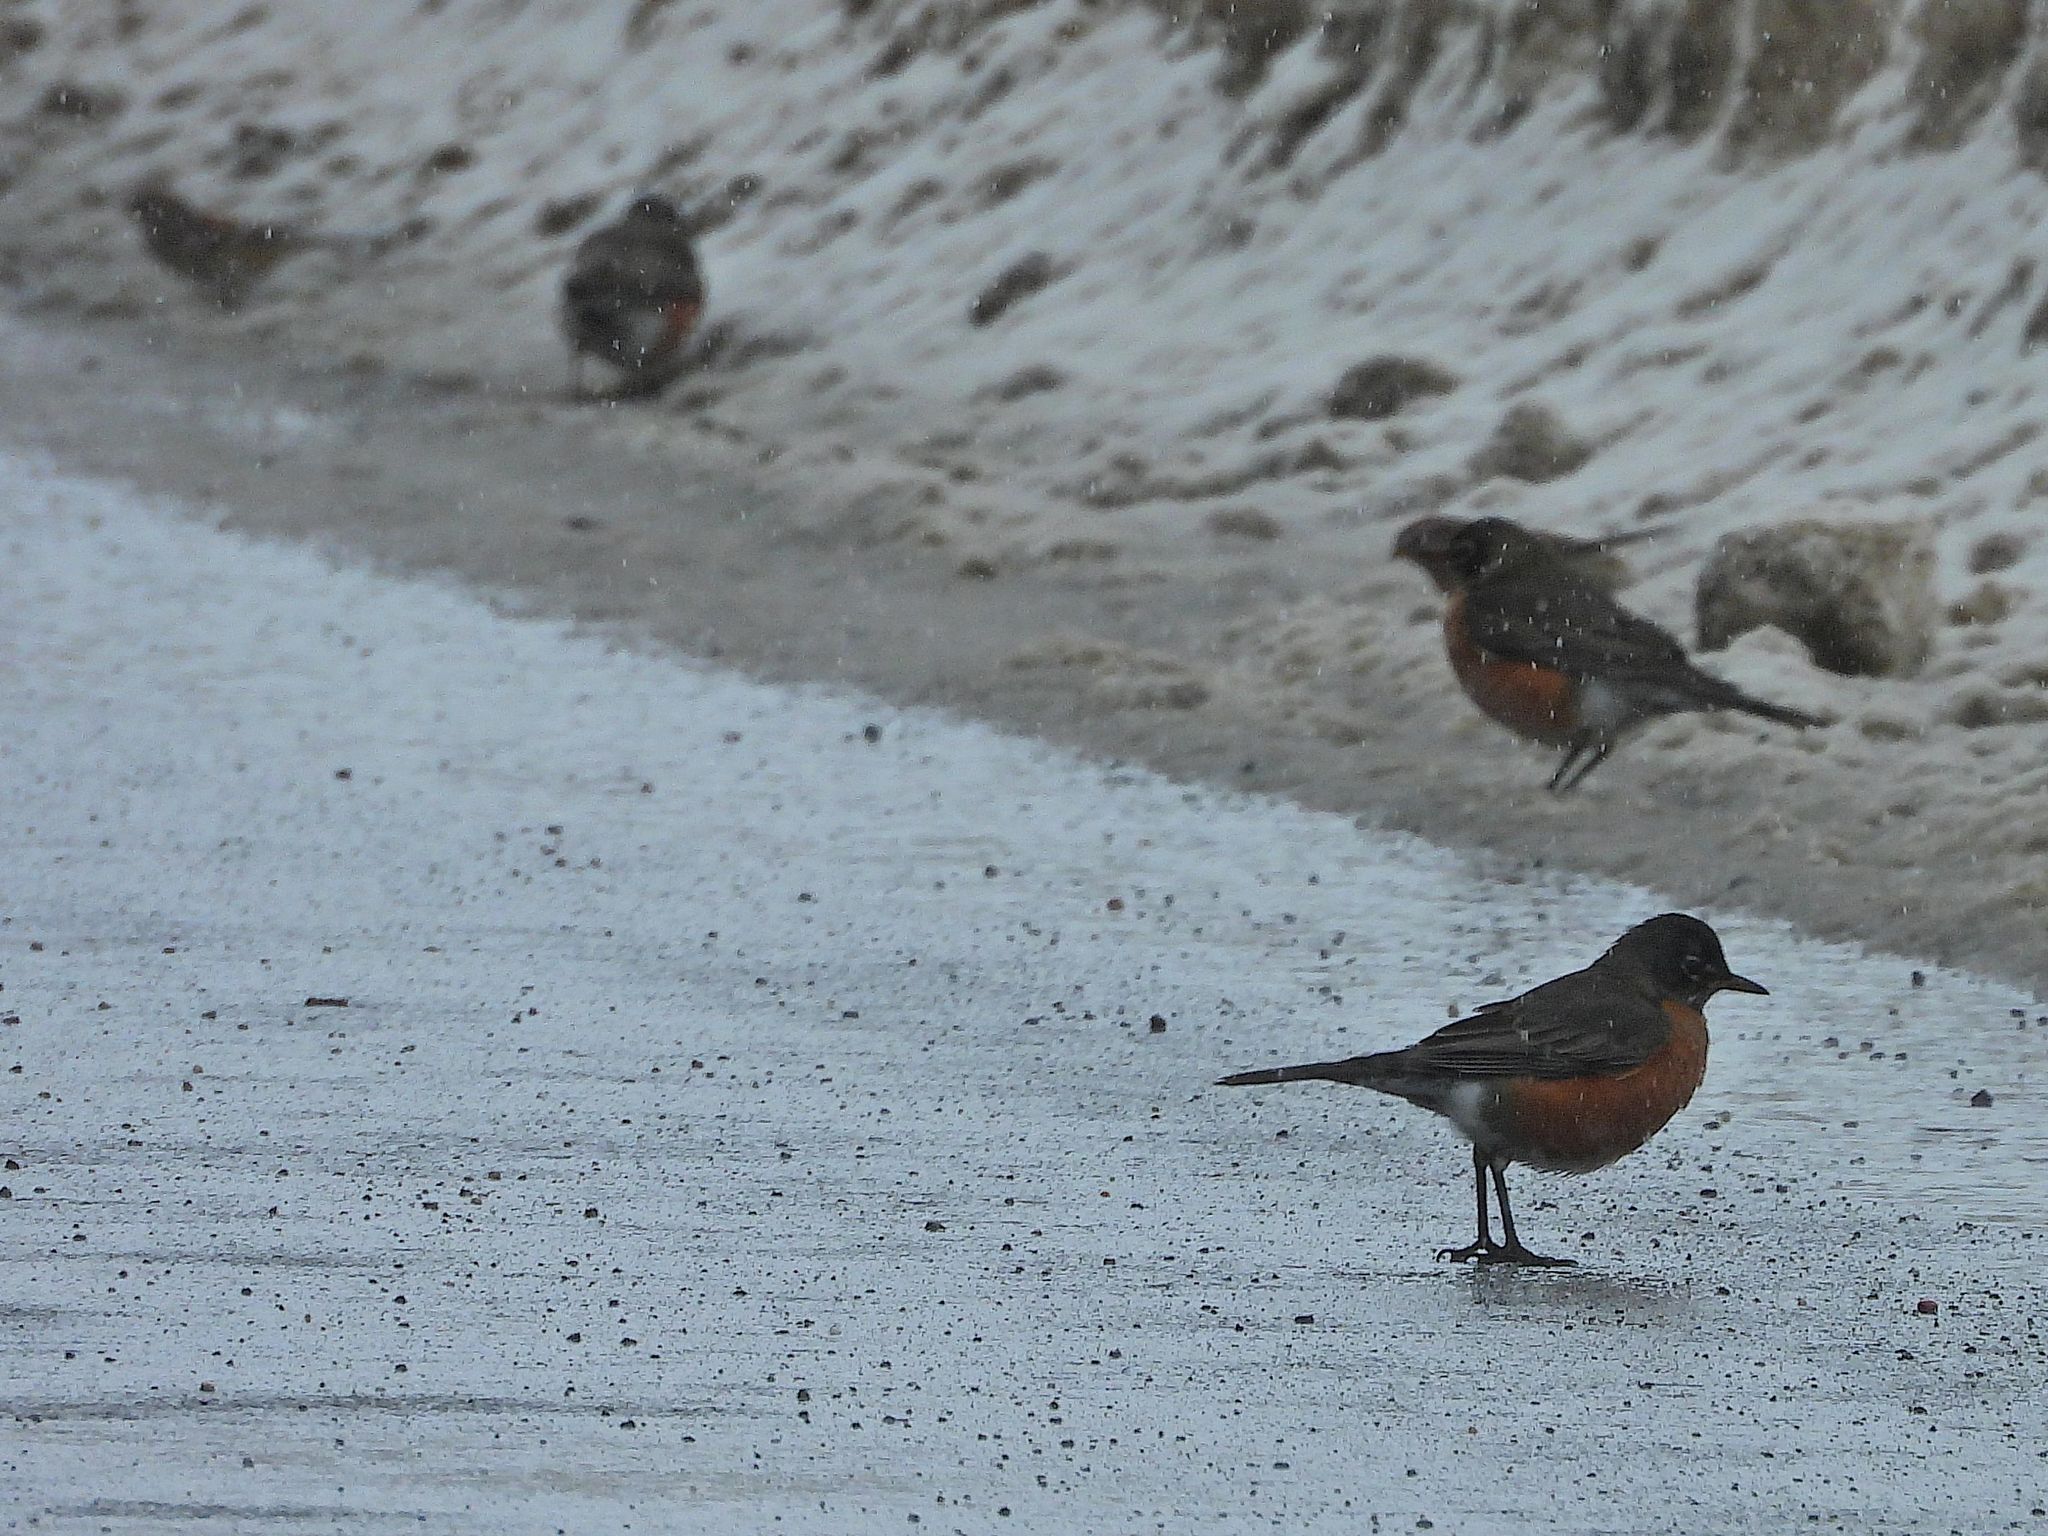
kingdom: Animalia
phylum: Chordata
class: Aves
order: Passeriformes
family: Turdidae
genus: Turdus
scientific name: Turdus migratorius
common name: American robin
